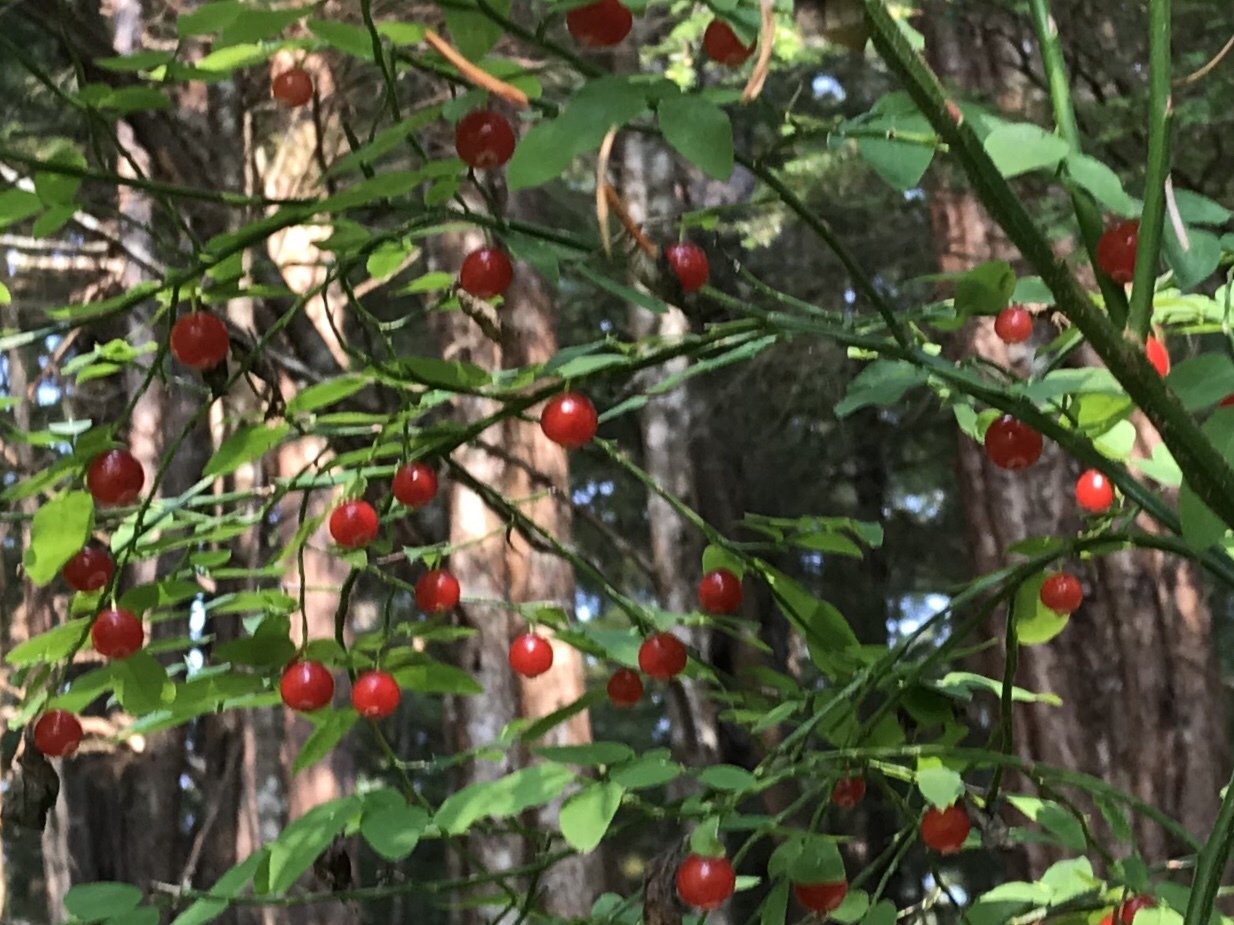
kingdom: Plantae
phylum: Tracheophyta
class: Magnoliopsida
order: Ericales
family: Ericaceae
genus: Vaccinium
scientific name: Vaccinium parvifolium
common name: Red-huckleberry
